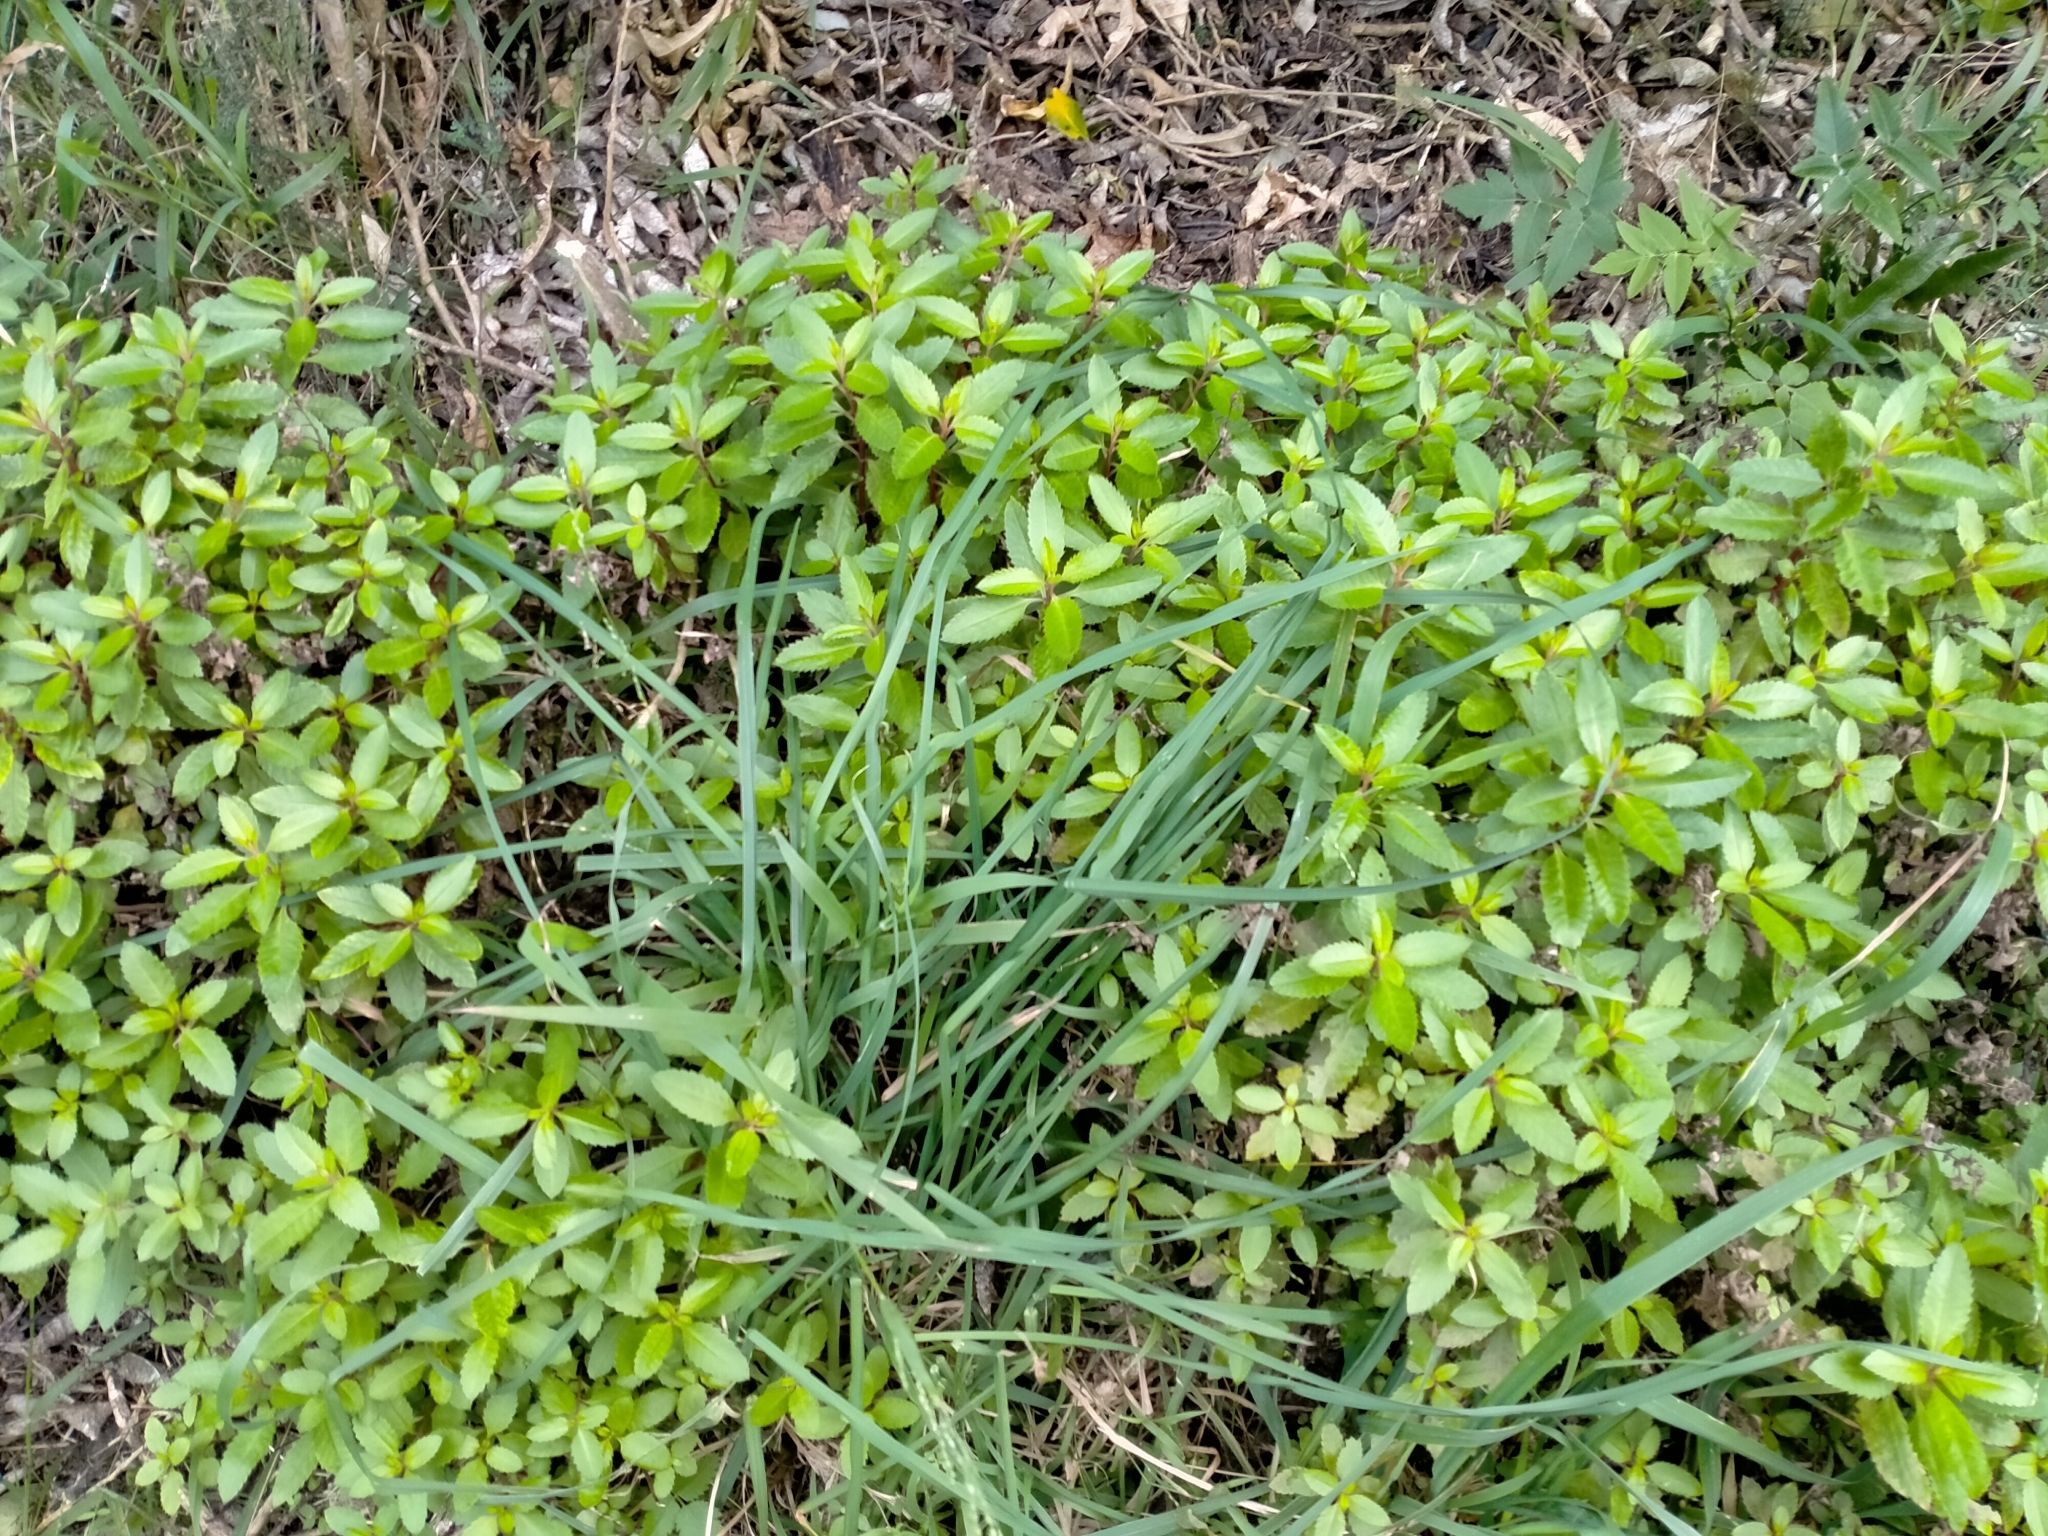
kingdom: Plantae
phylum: Tracheophyta
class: Magnoliopsida
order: Saxifragales
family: Haloragaceae
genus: Haloragis
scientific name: Haloragis erecta
